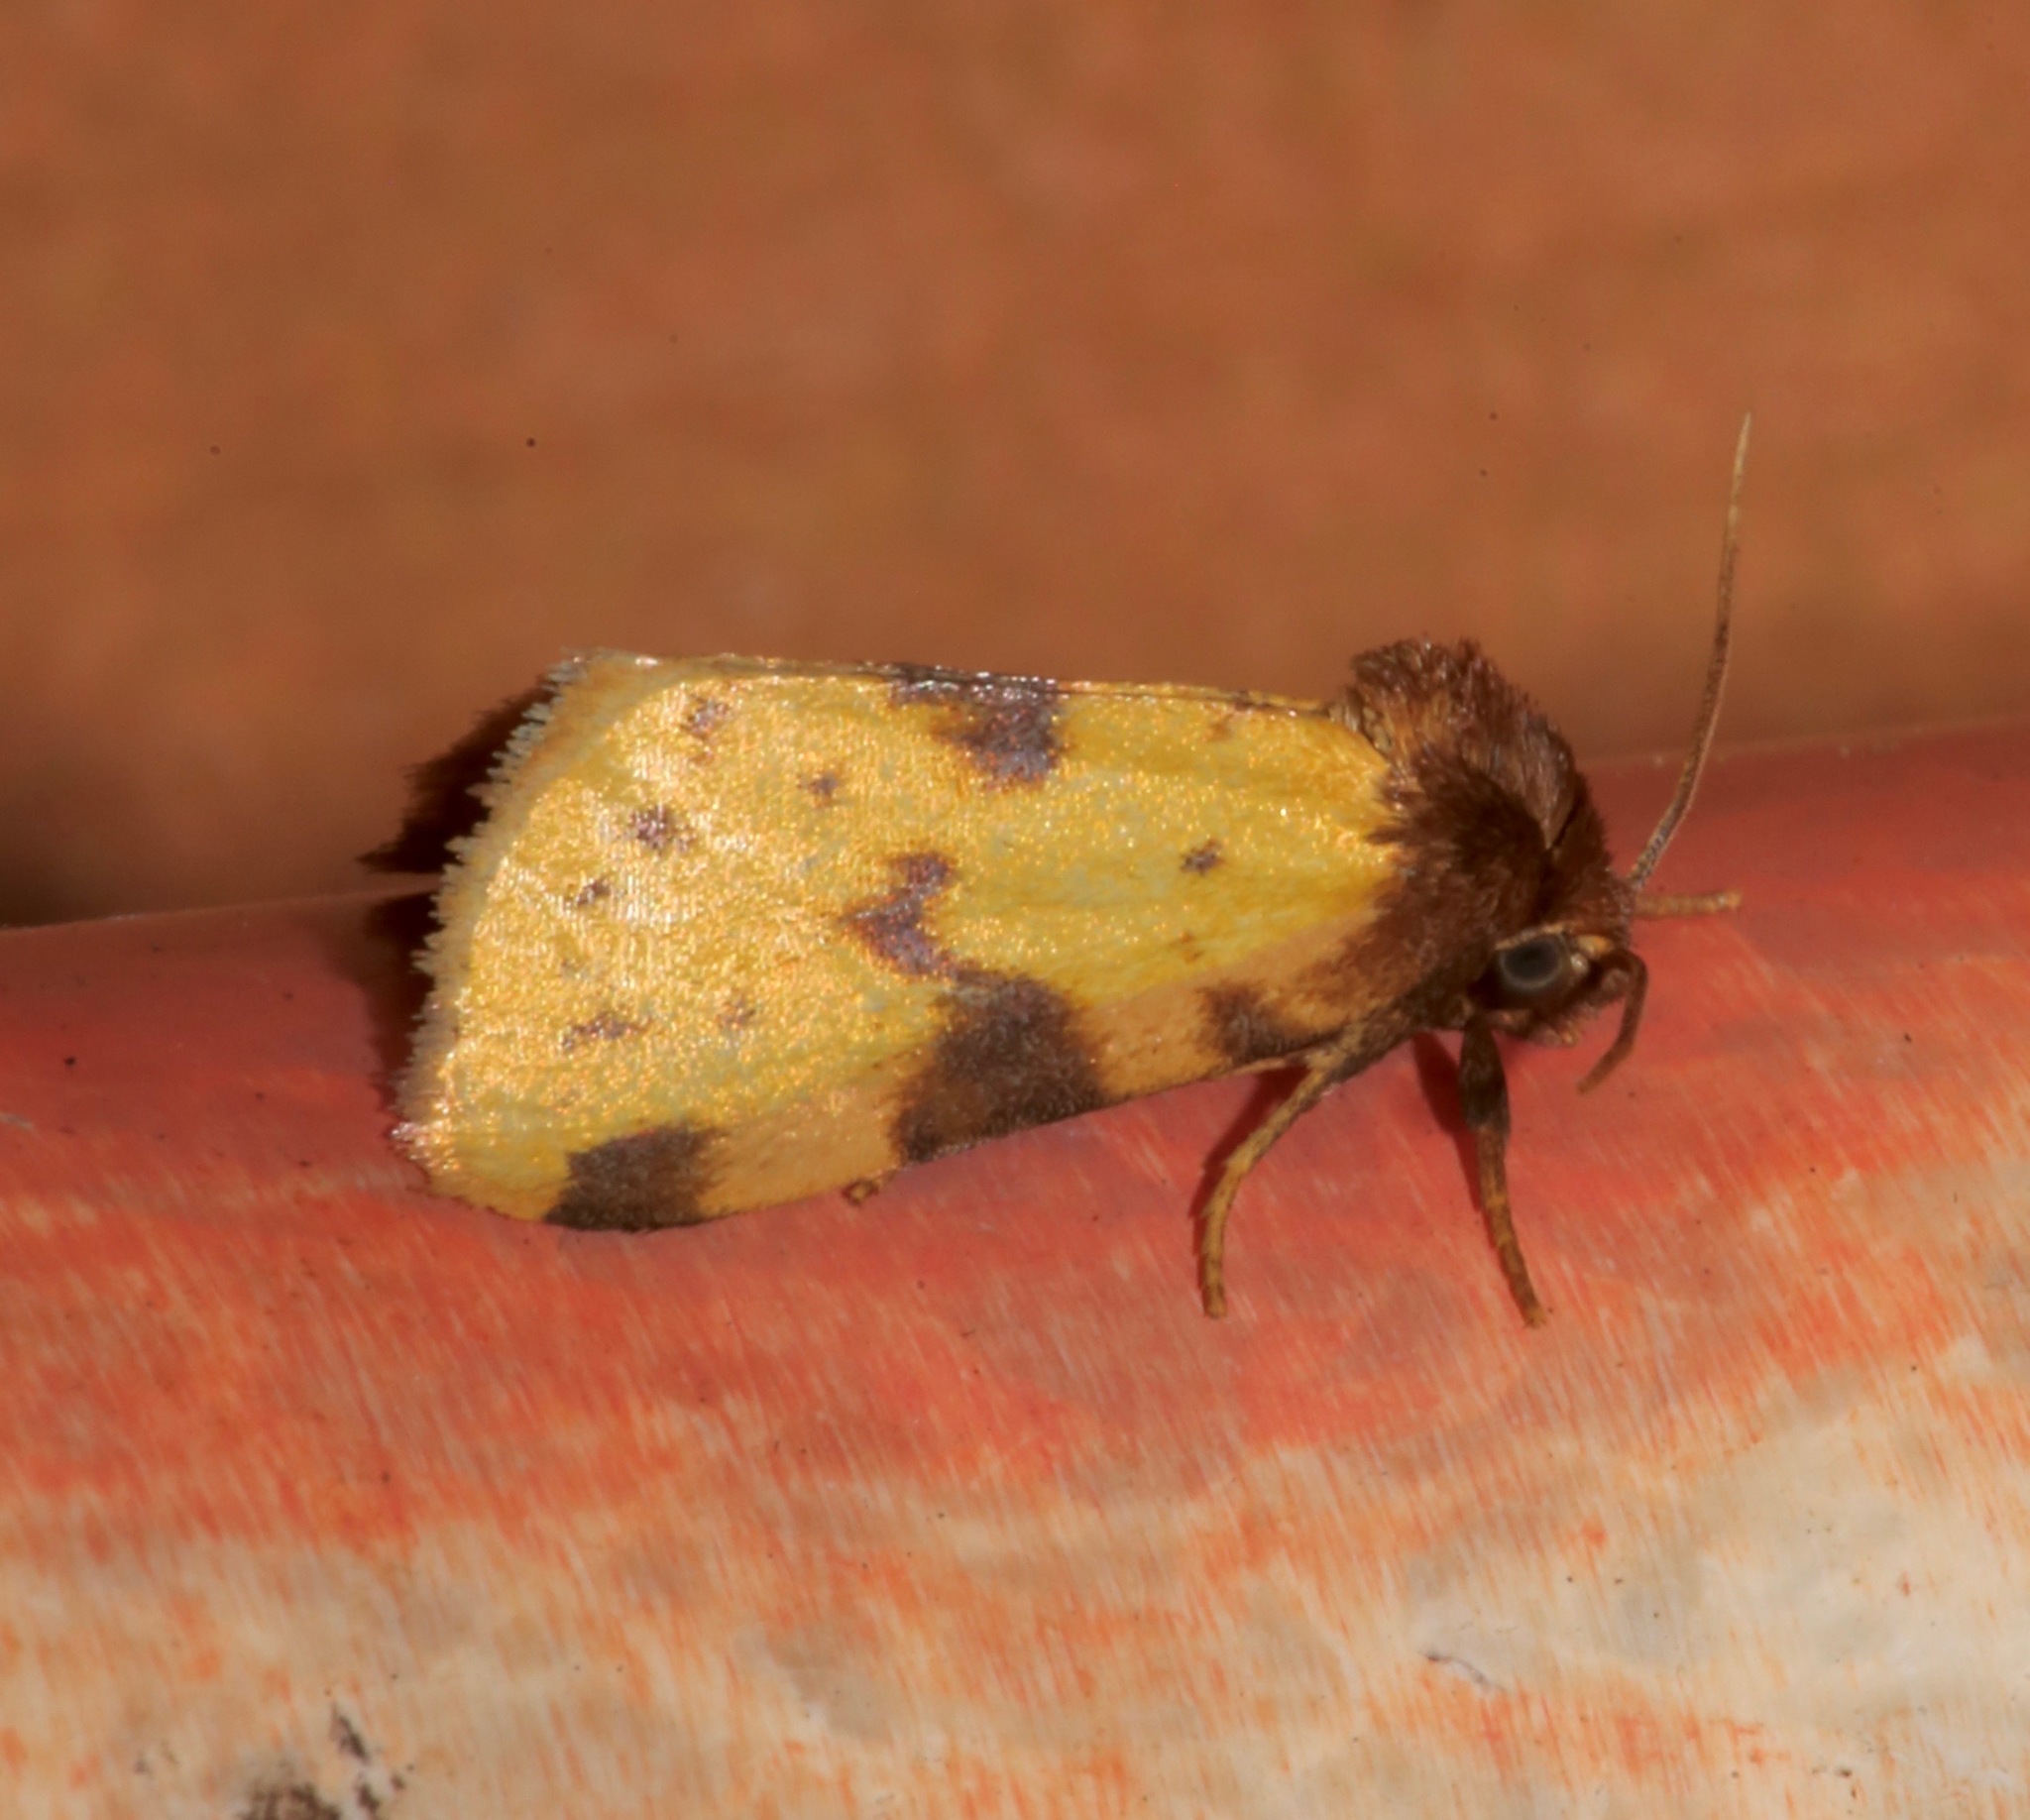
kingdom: Animalia
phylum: Arthropoda
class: Insecta
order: Lepidoptera
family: Noctuidae
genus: Azenia
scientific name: Azenia obtusa
